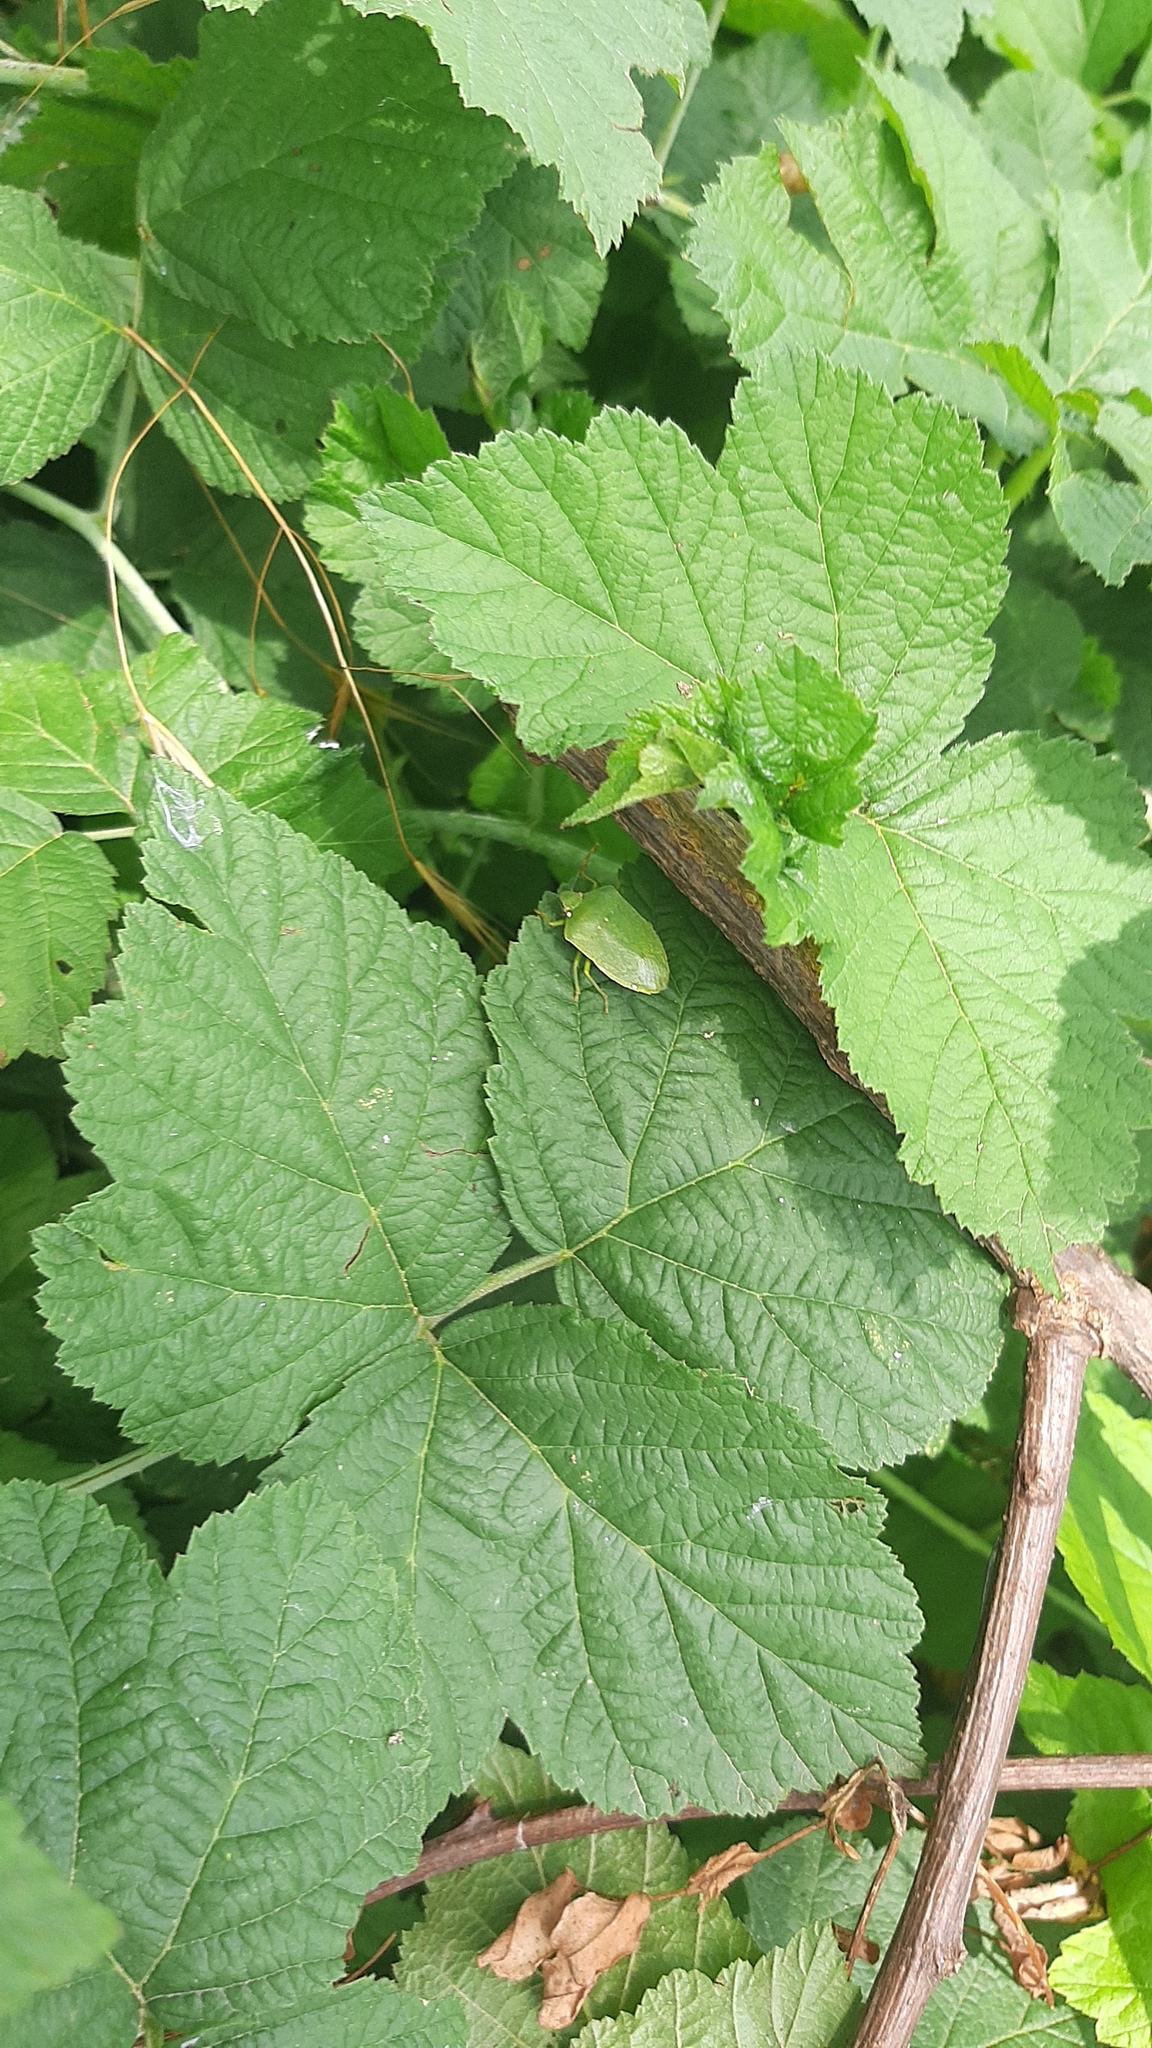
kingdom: Animalia
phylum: Arthropoda
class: Insecta
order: Hemiptera
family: Pentatomidae
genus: Nezara
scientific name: Nezara viridula
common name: Southern green stink bug
